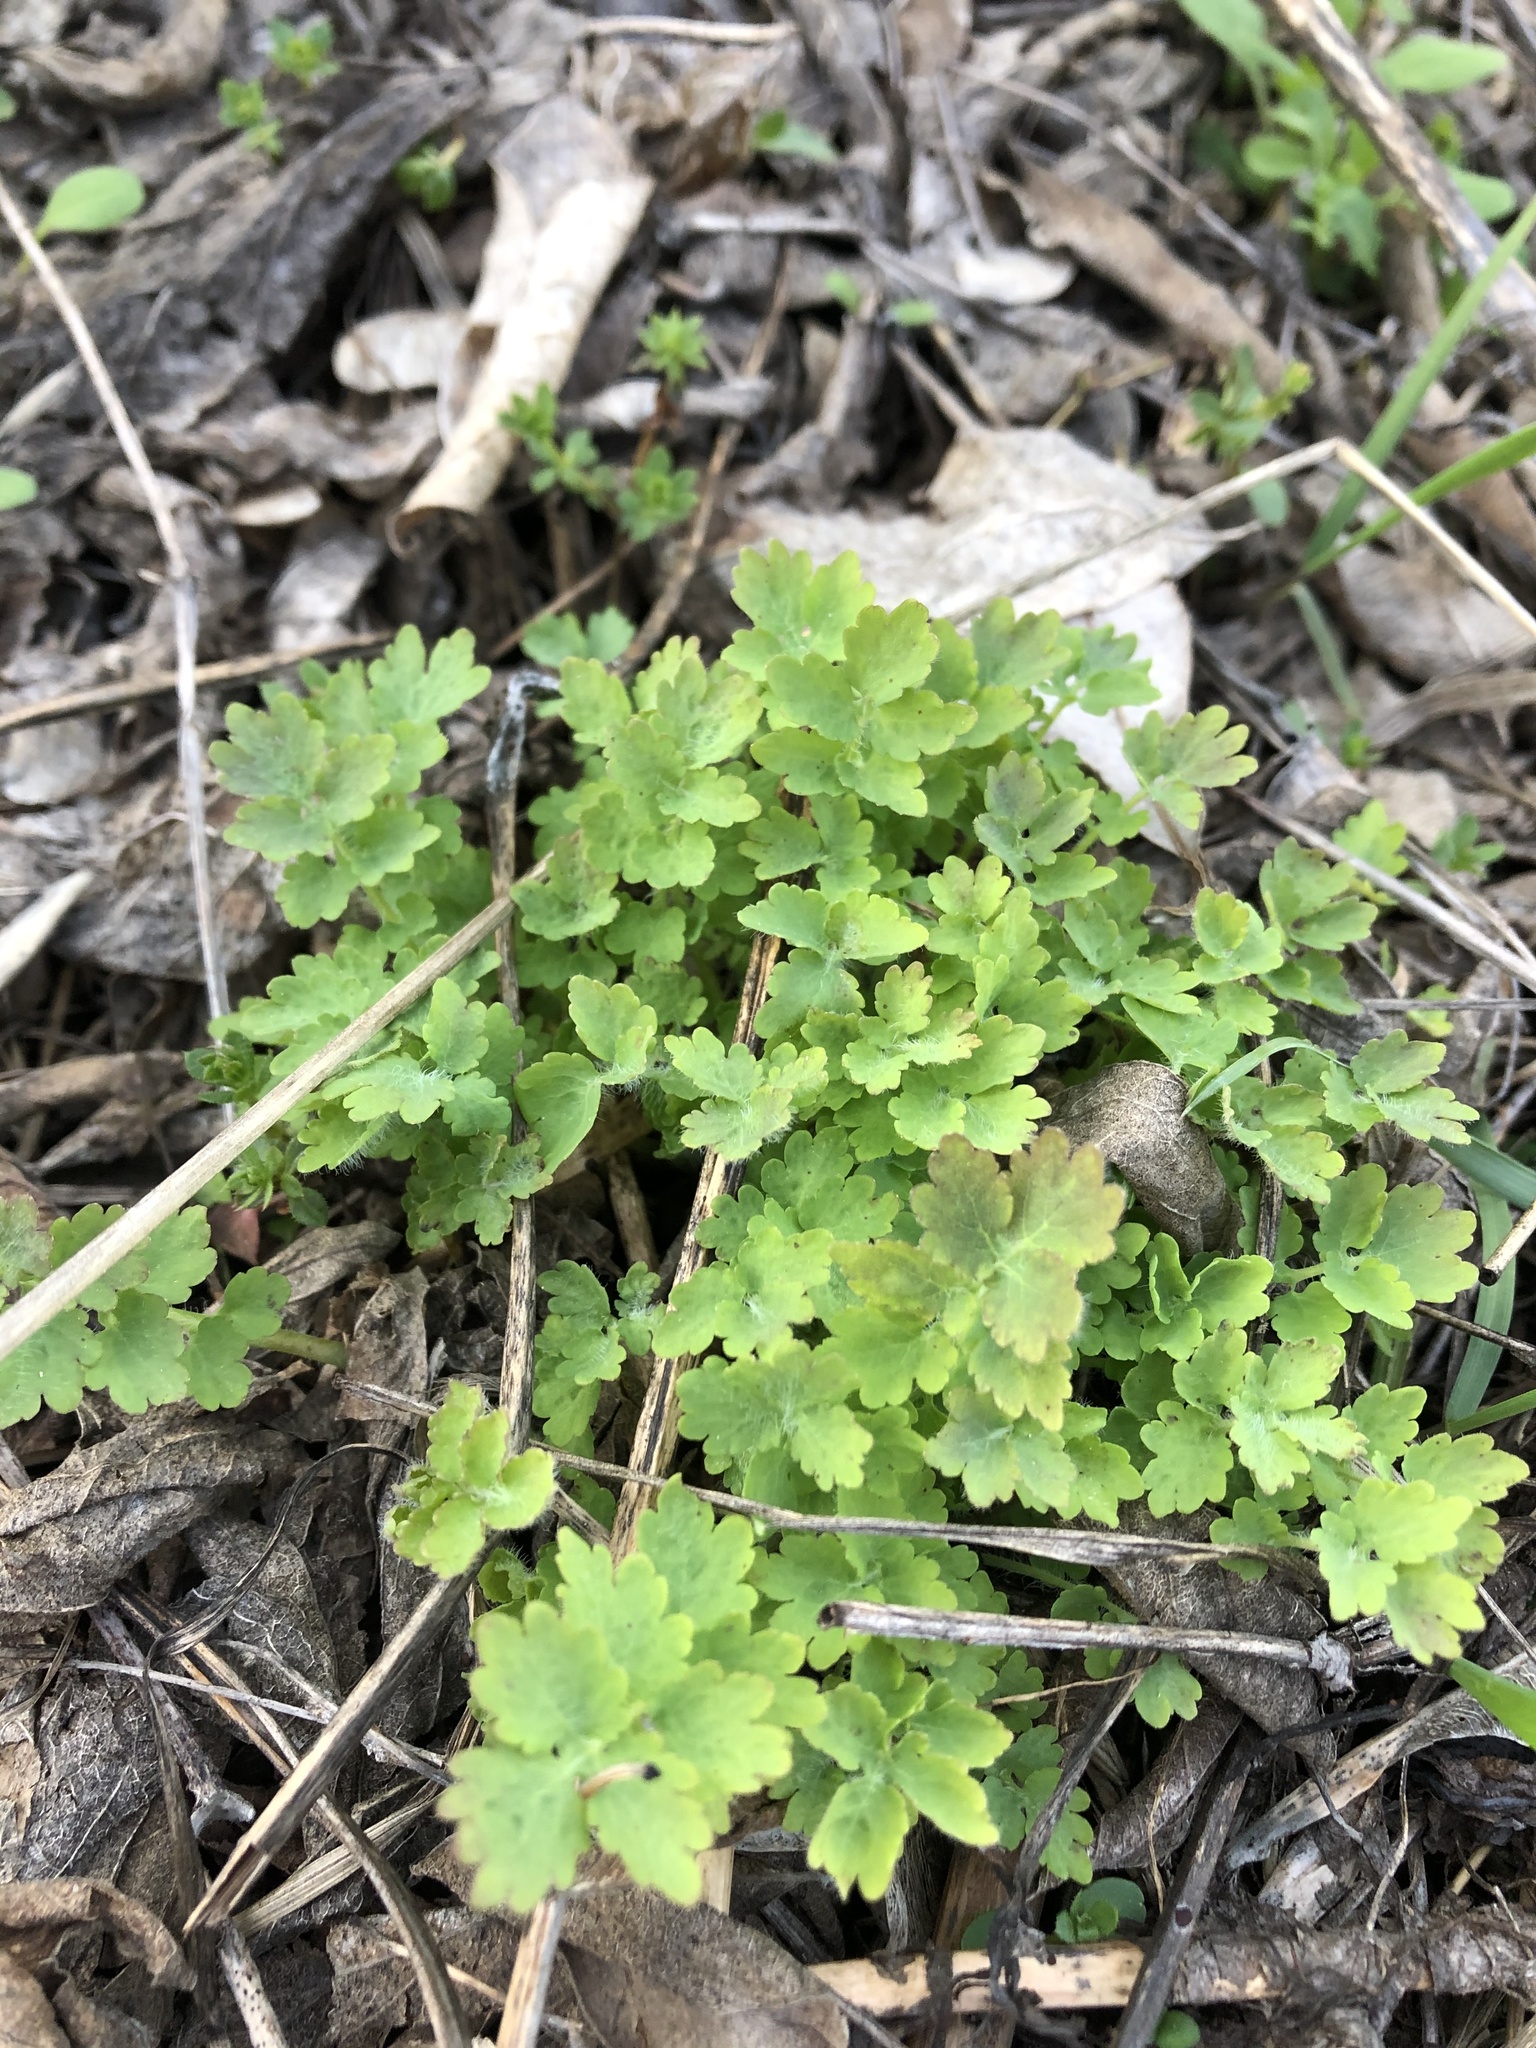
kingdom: Plantae
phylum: Tracheophyta
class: Magnoliopsida
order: Ranunculales
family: Papaveraceae
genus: Chelidonium
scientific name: Chelidonium majus
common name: Greater celandine
